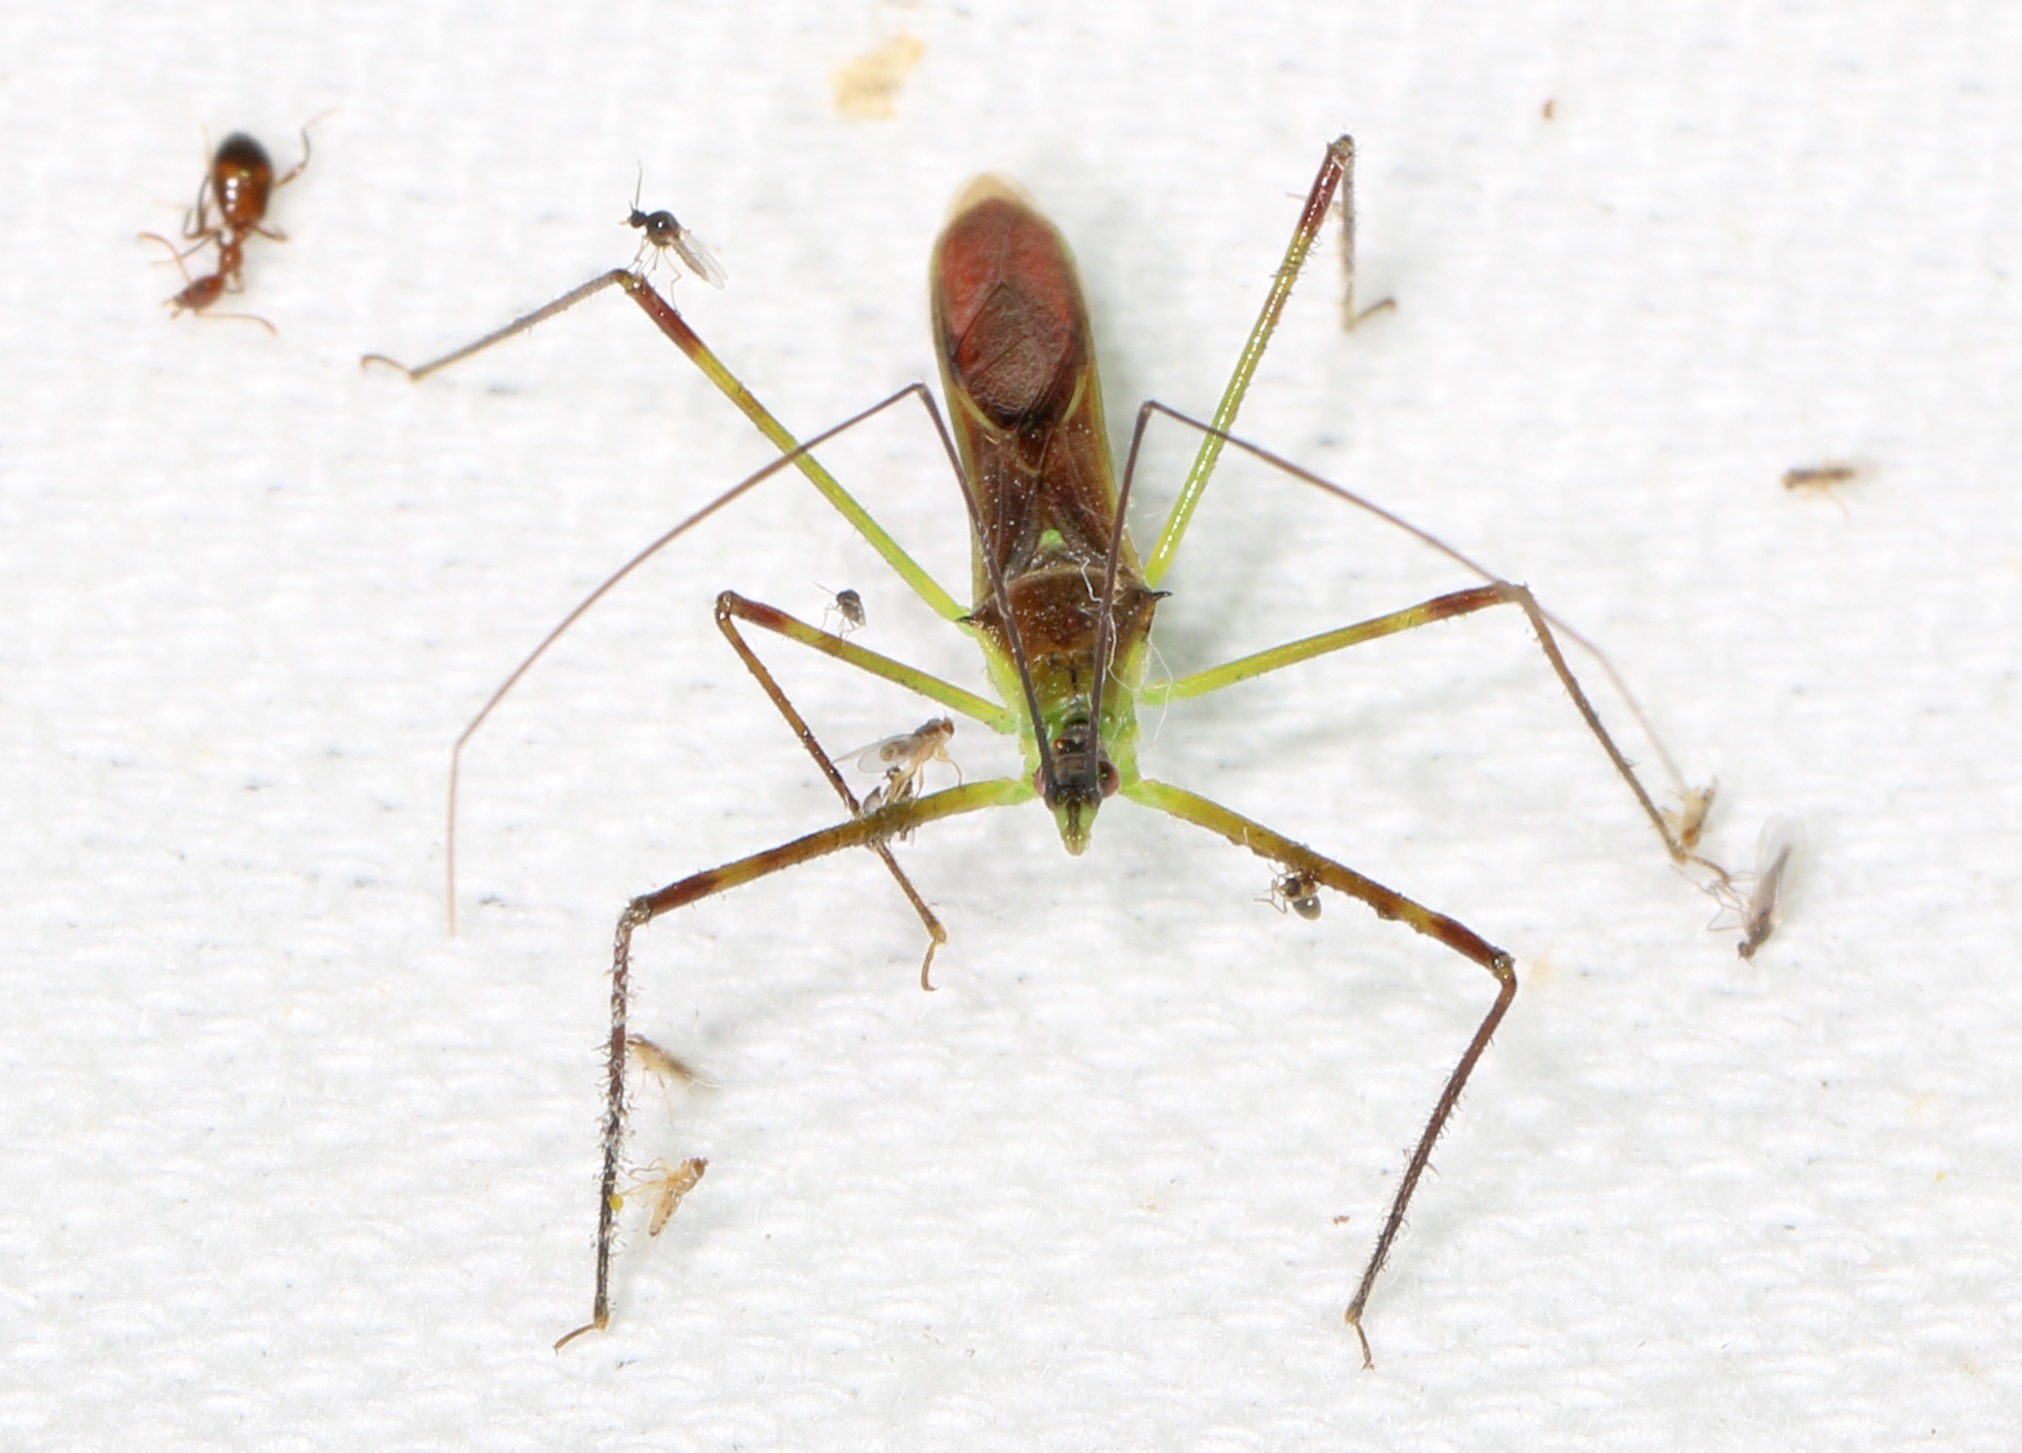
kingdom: Animalia
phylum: Arthropoda
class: Insecta
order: Hemiptera
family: Reduviidae
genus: Zelus
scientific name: Zelus luridus
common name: Pale green assassin bug
